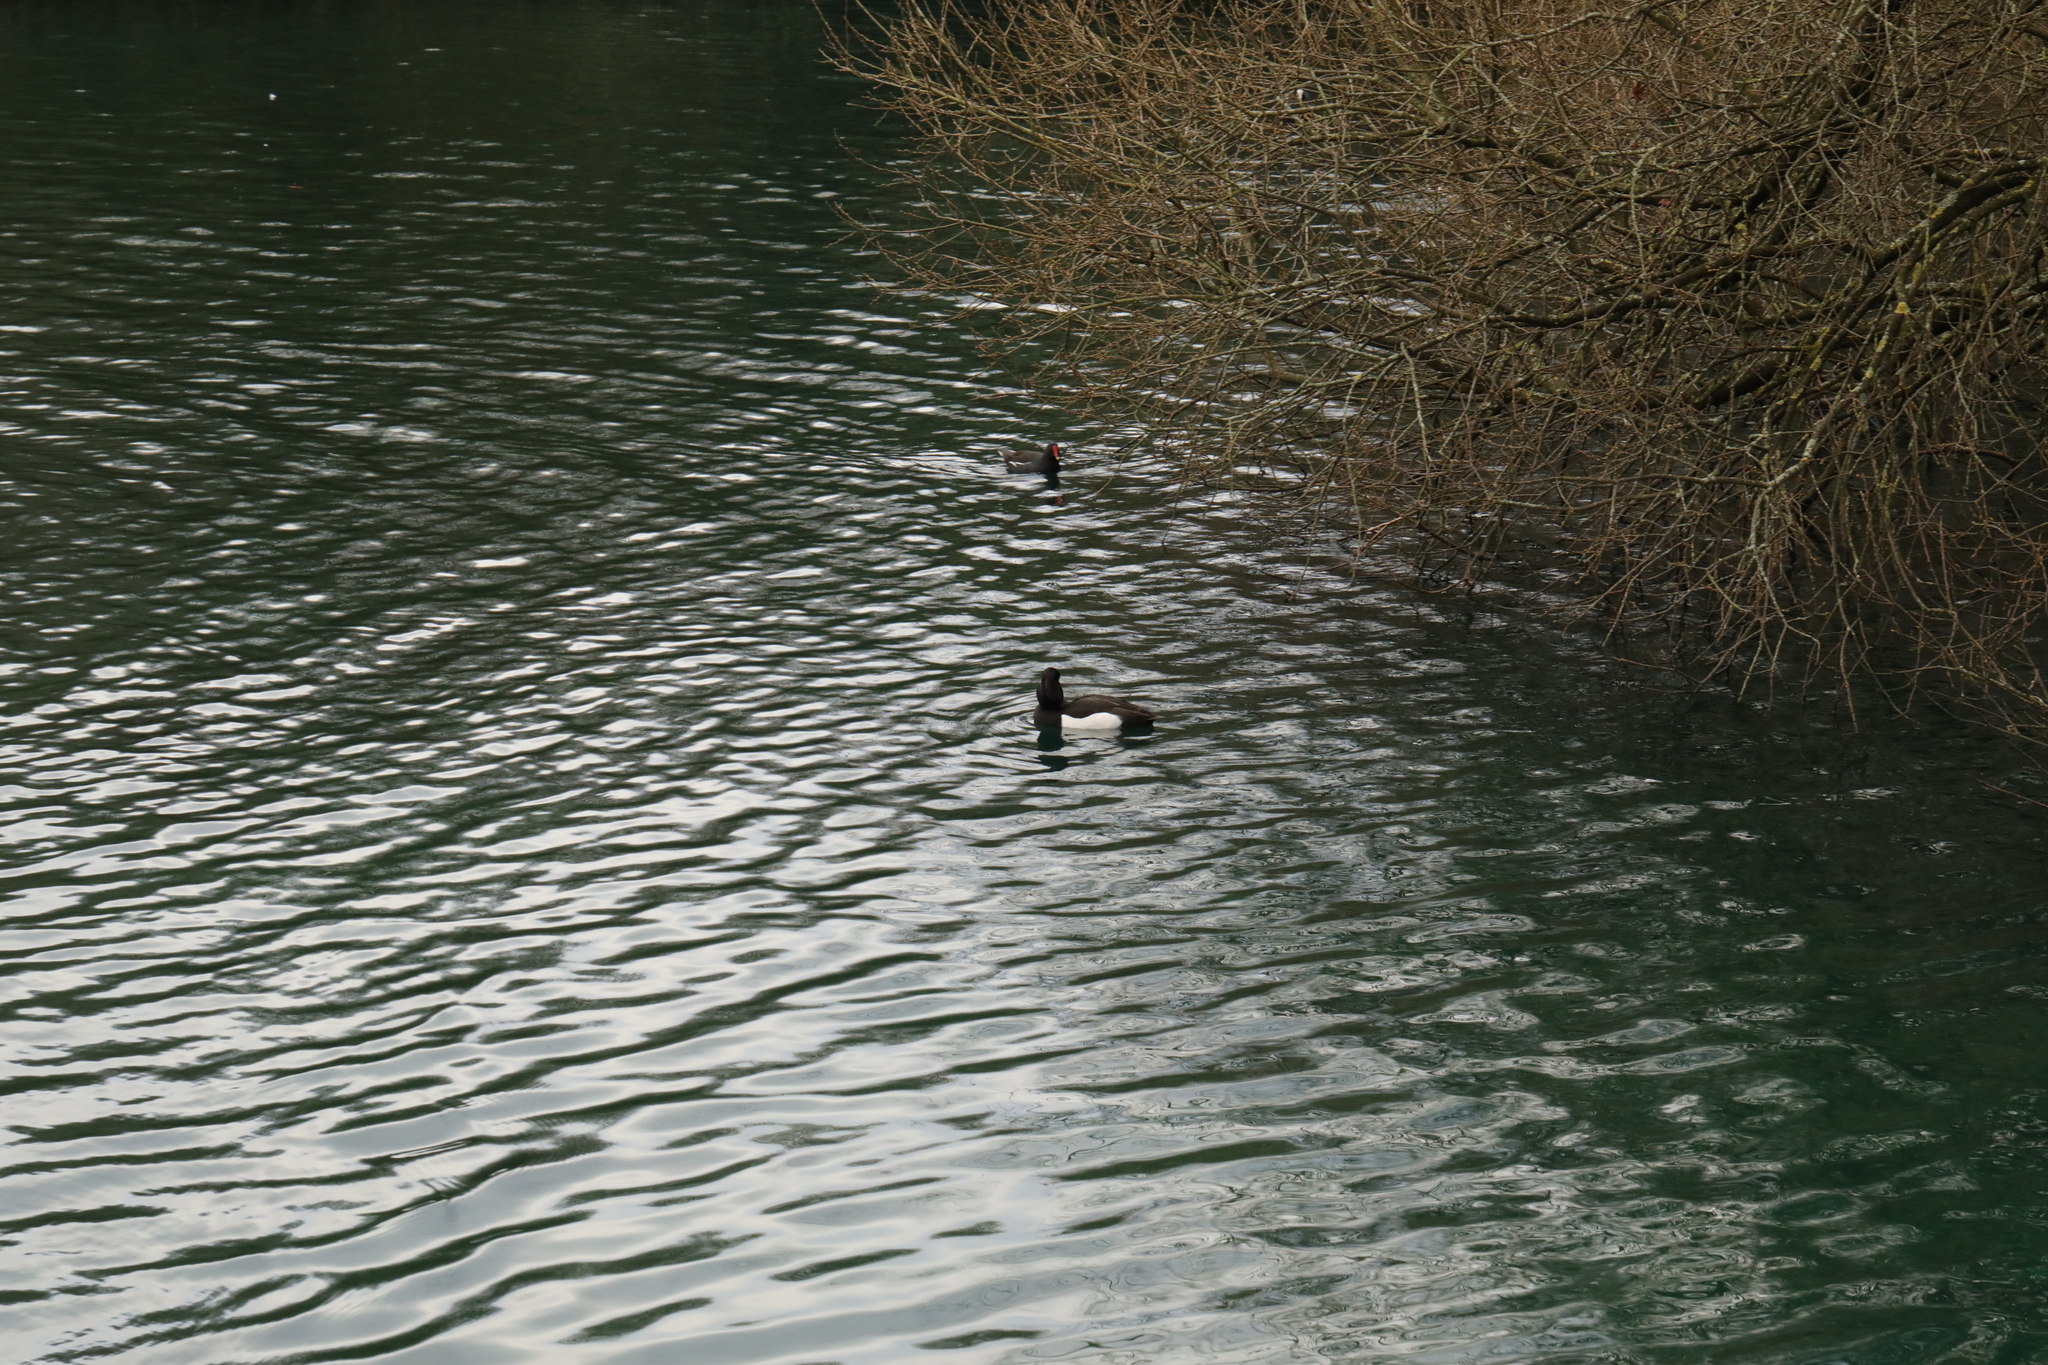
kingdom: Animalia
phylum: Chordata
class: Aves
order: Anseriformes
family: Anatidae
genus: Aythya
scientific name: Aythya fuligula
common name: Tufted duck
